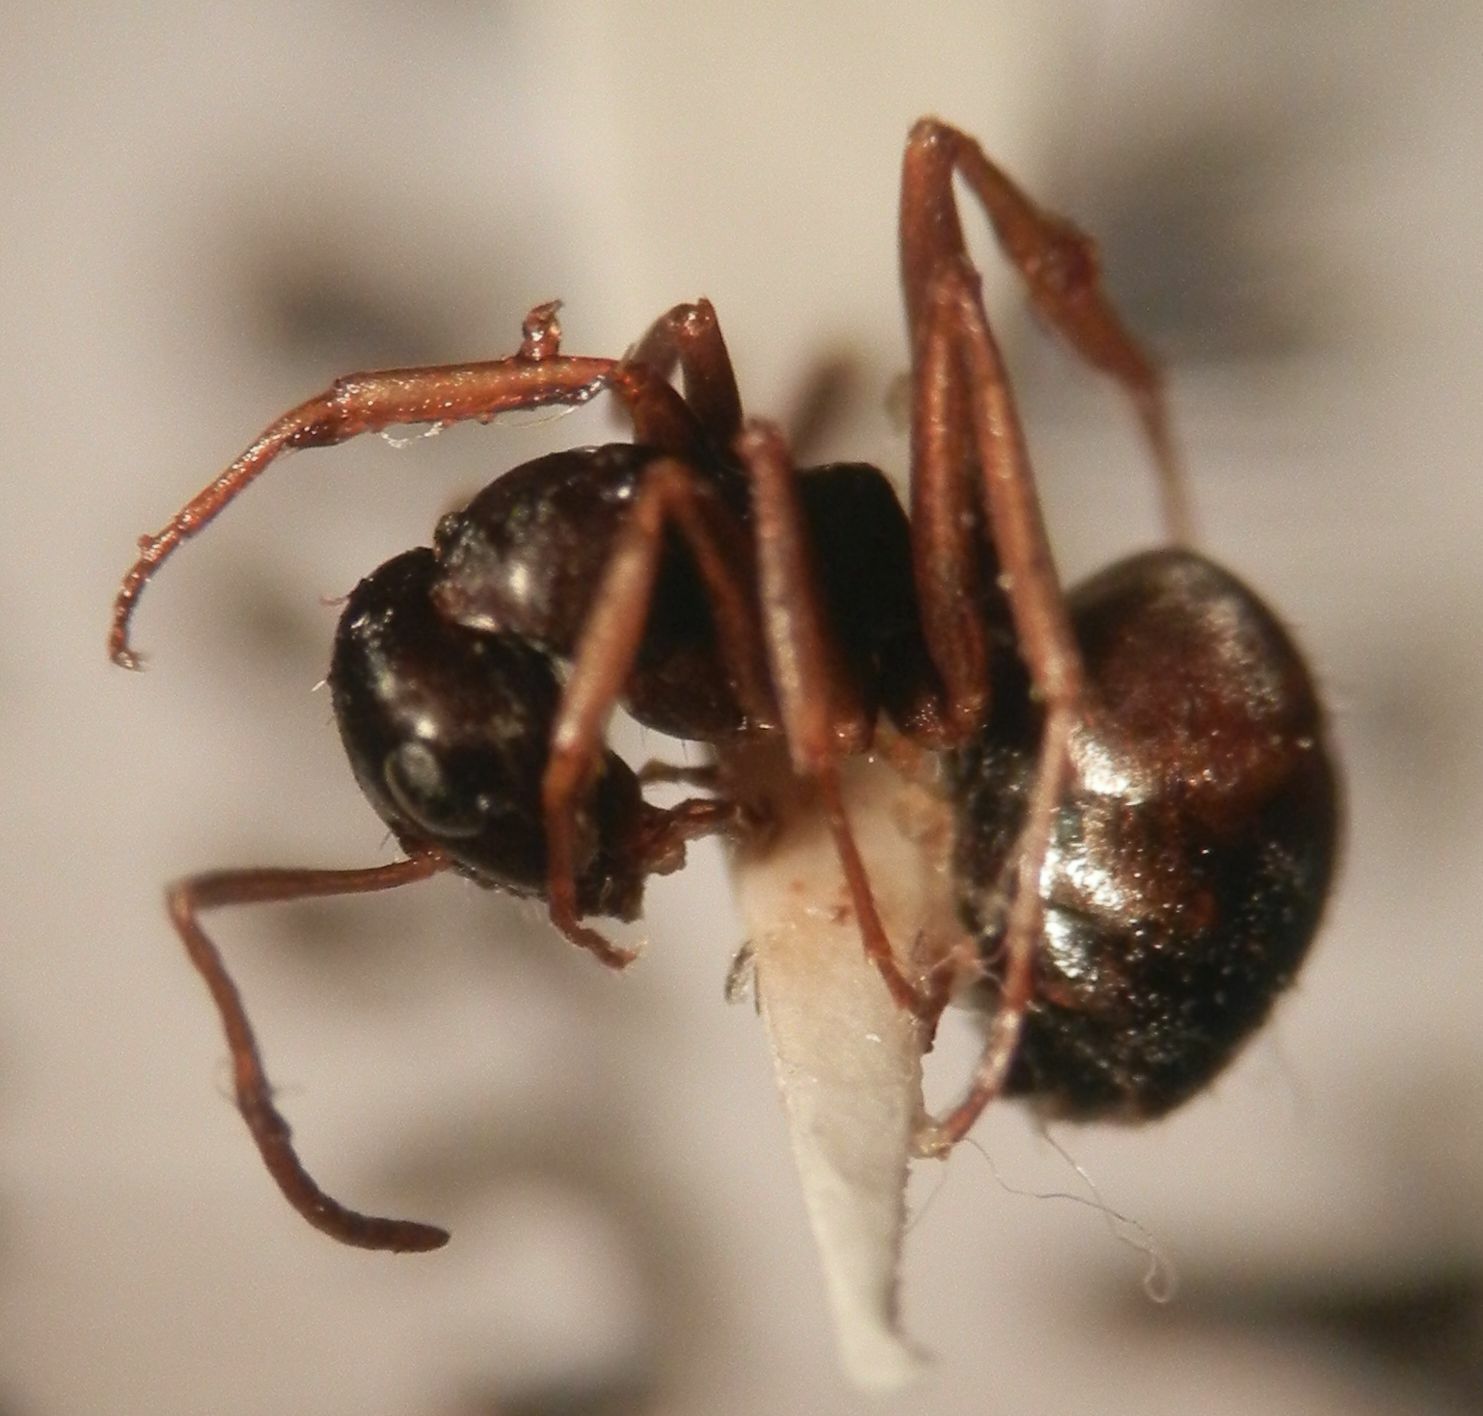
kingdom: Animalia
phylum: Arthropoda
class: Insecta
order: Hymenoptera
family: Formicidae
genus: Formica
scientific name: Formica fusca
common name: Silky ant
